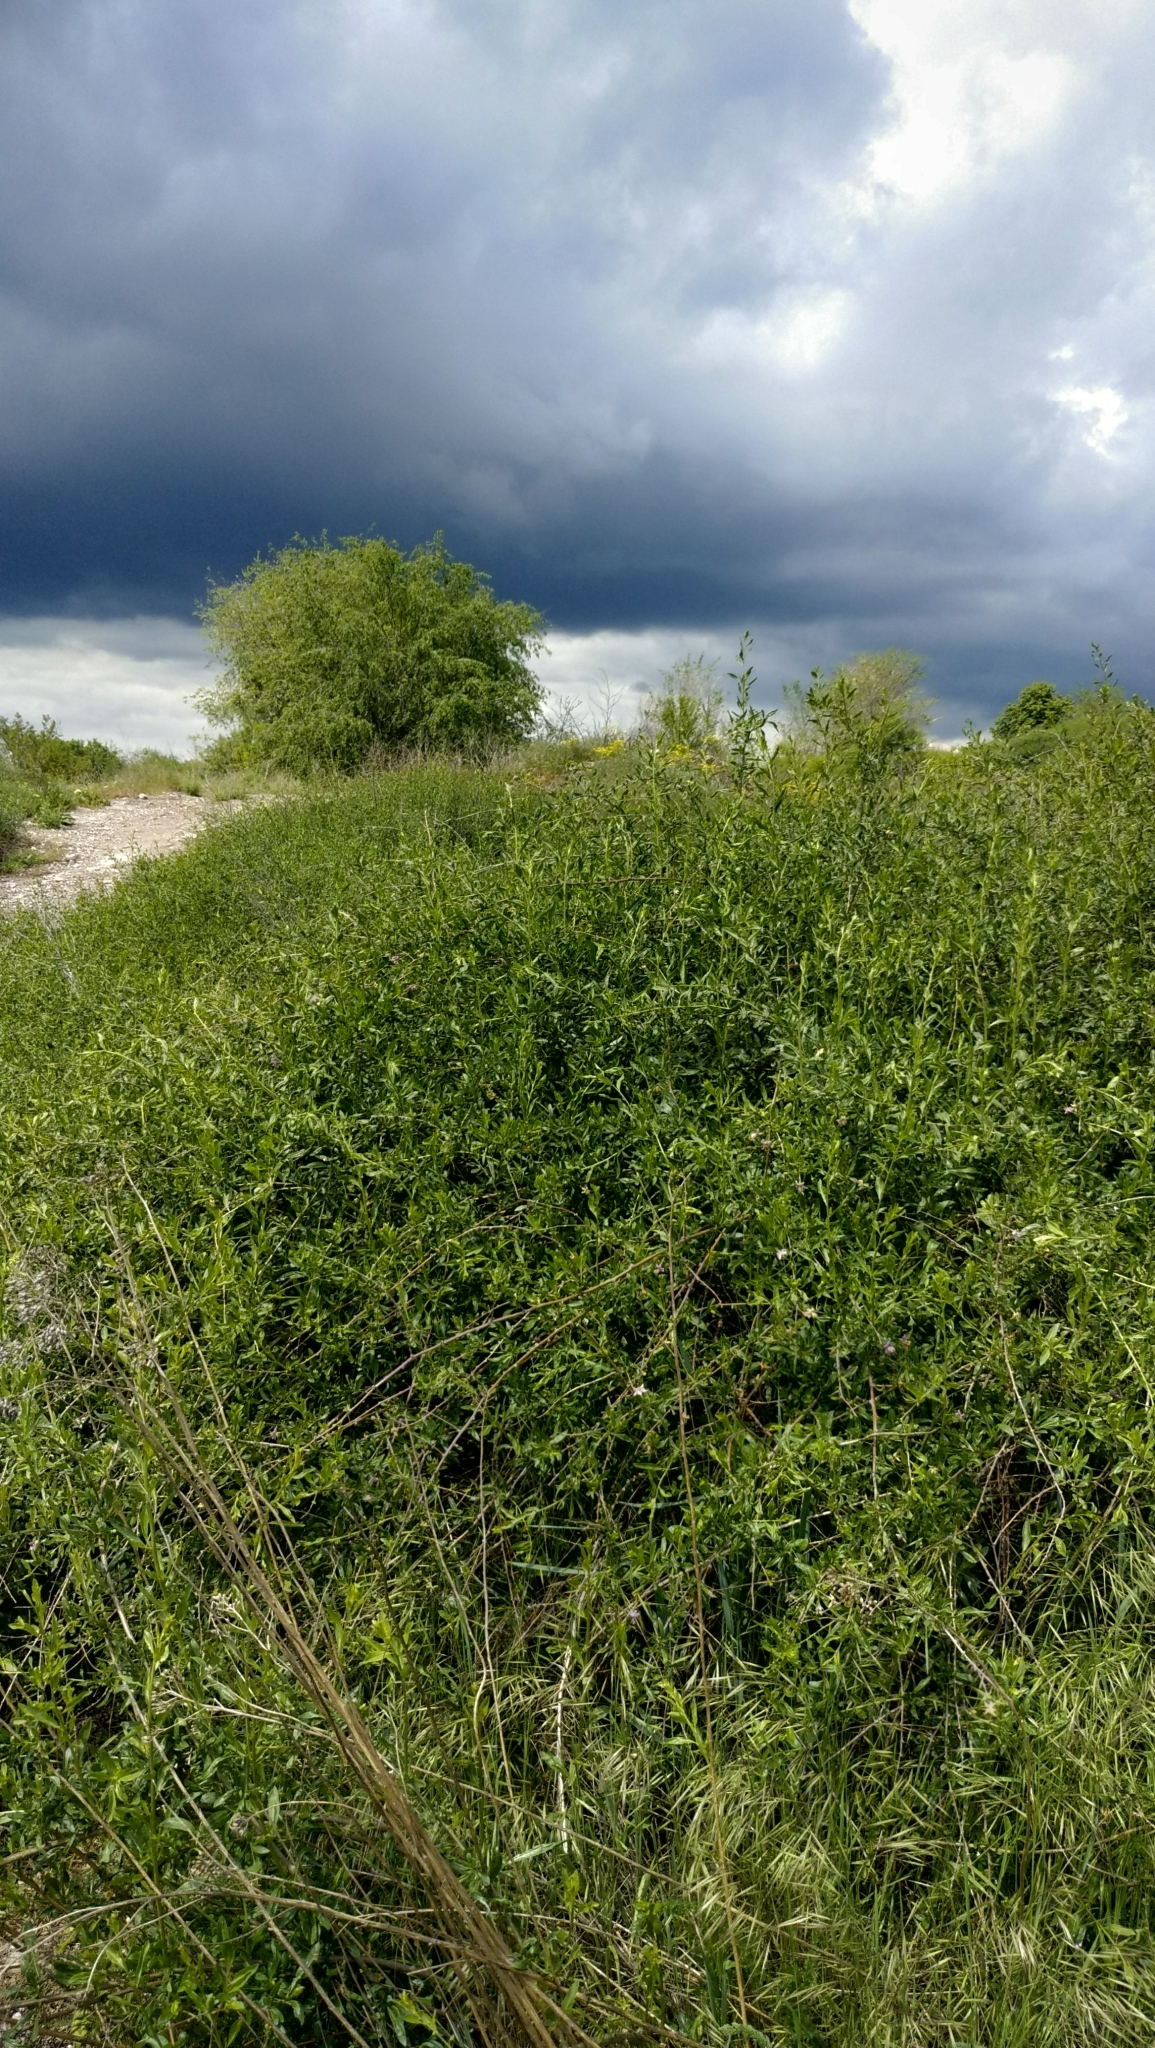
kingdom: Plantae
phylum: Tracheophyta
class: Magnoliopsida
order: Solanales
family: Solanaceae
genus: Lycium
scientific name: Lycium barbarum
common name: Duke of argyll's teaplant
